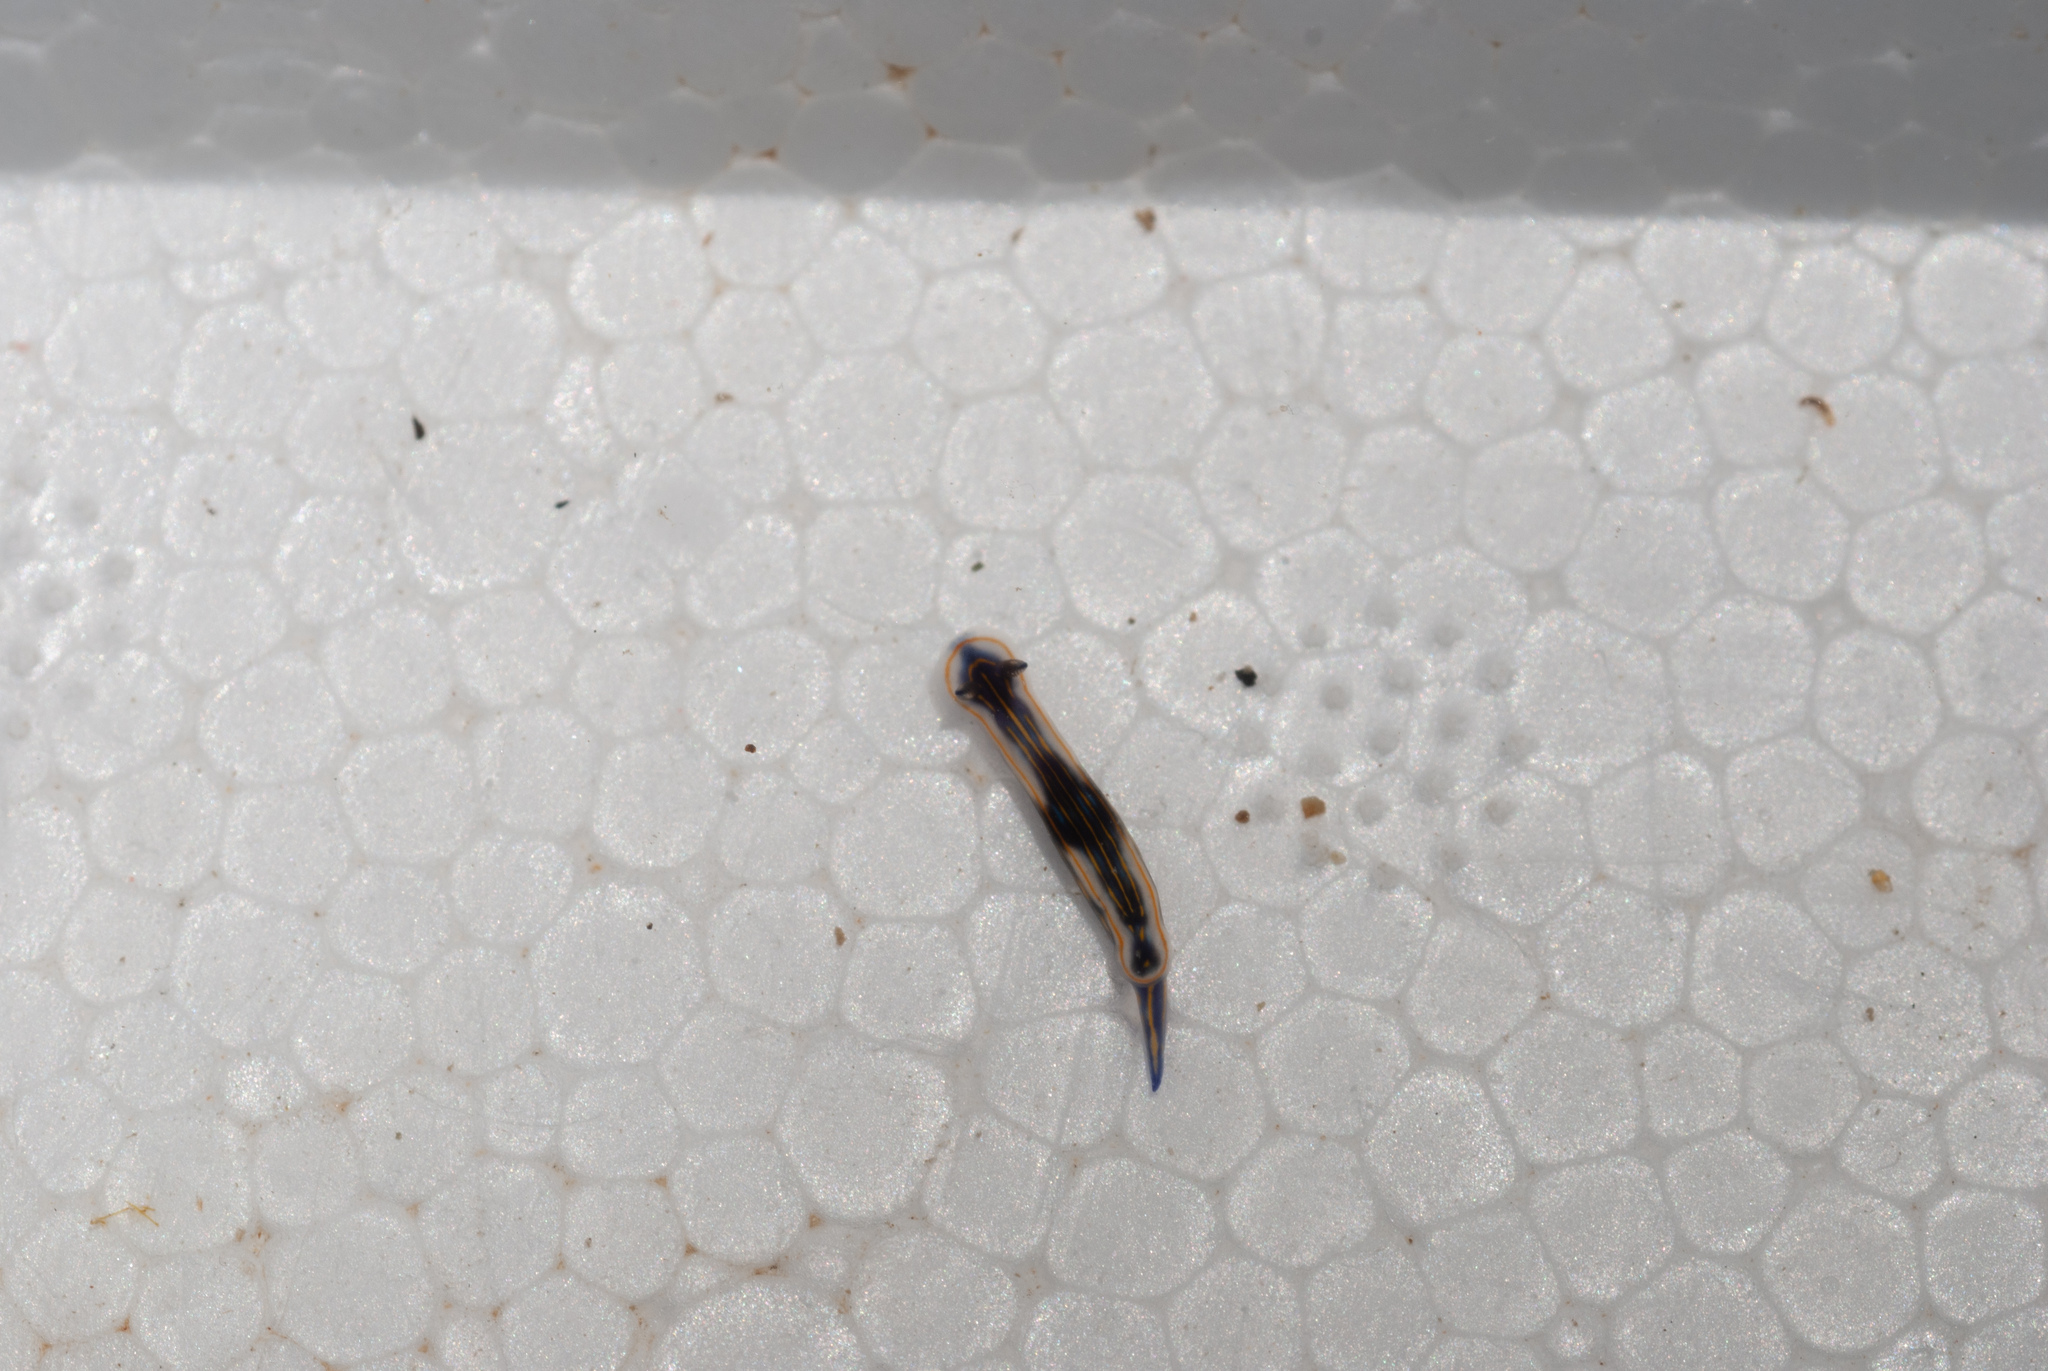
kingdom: Animalia
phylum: Mollusca
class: Gastropoda
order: Nudibranchia
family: Chromodorididae
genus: Felimare
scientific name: Felimare ruthae
